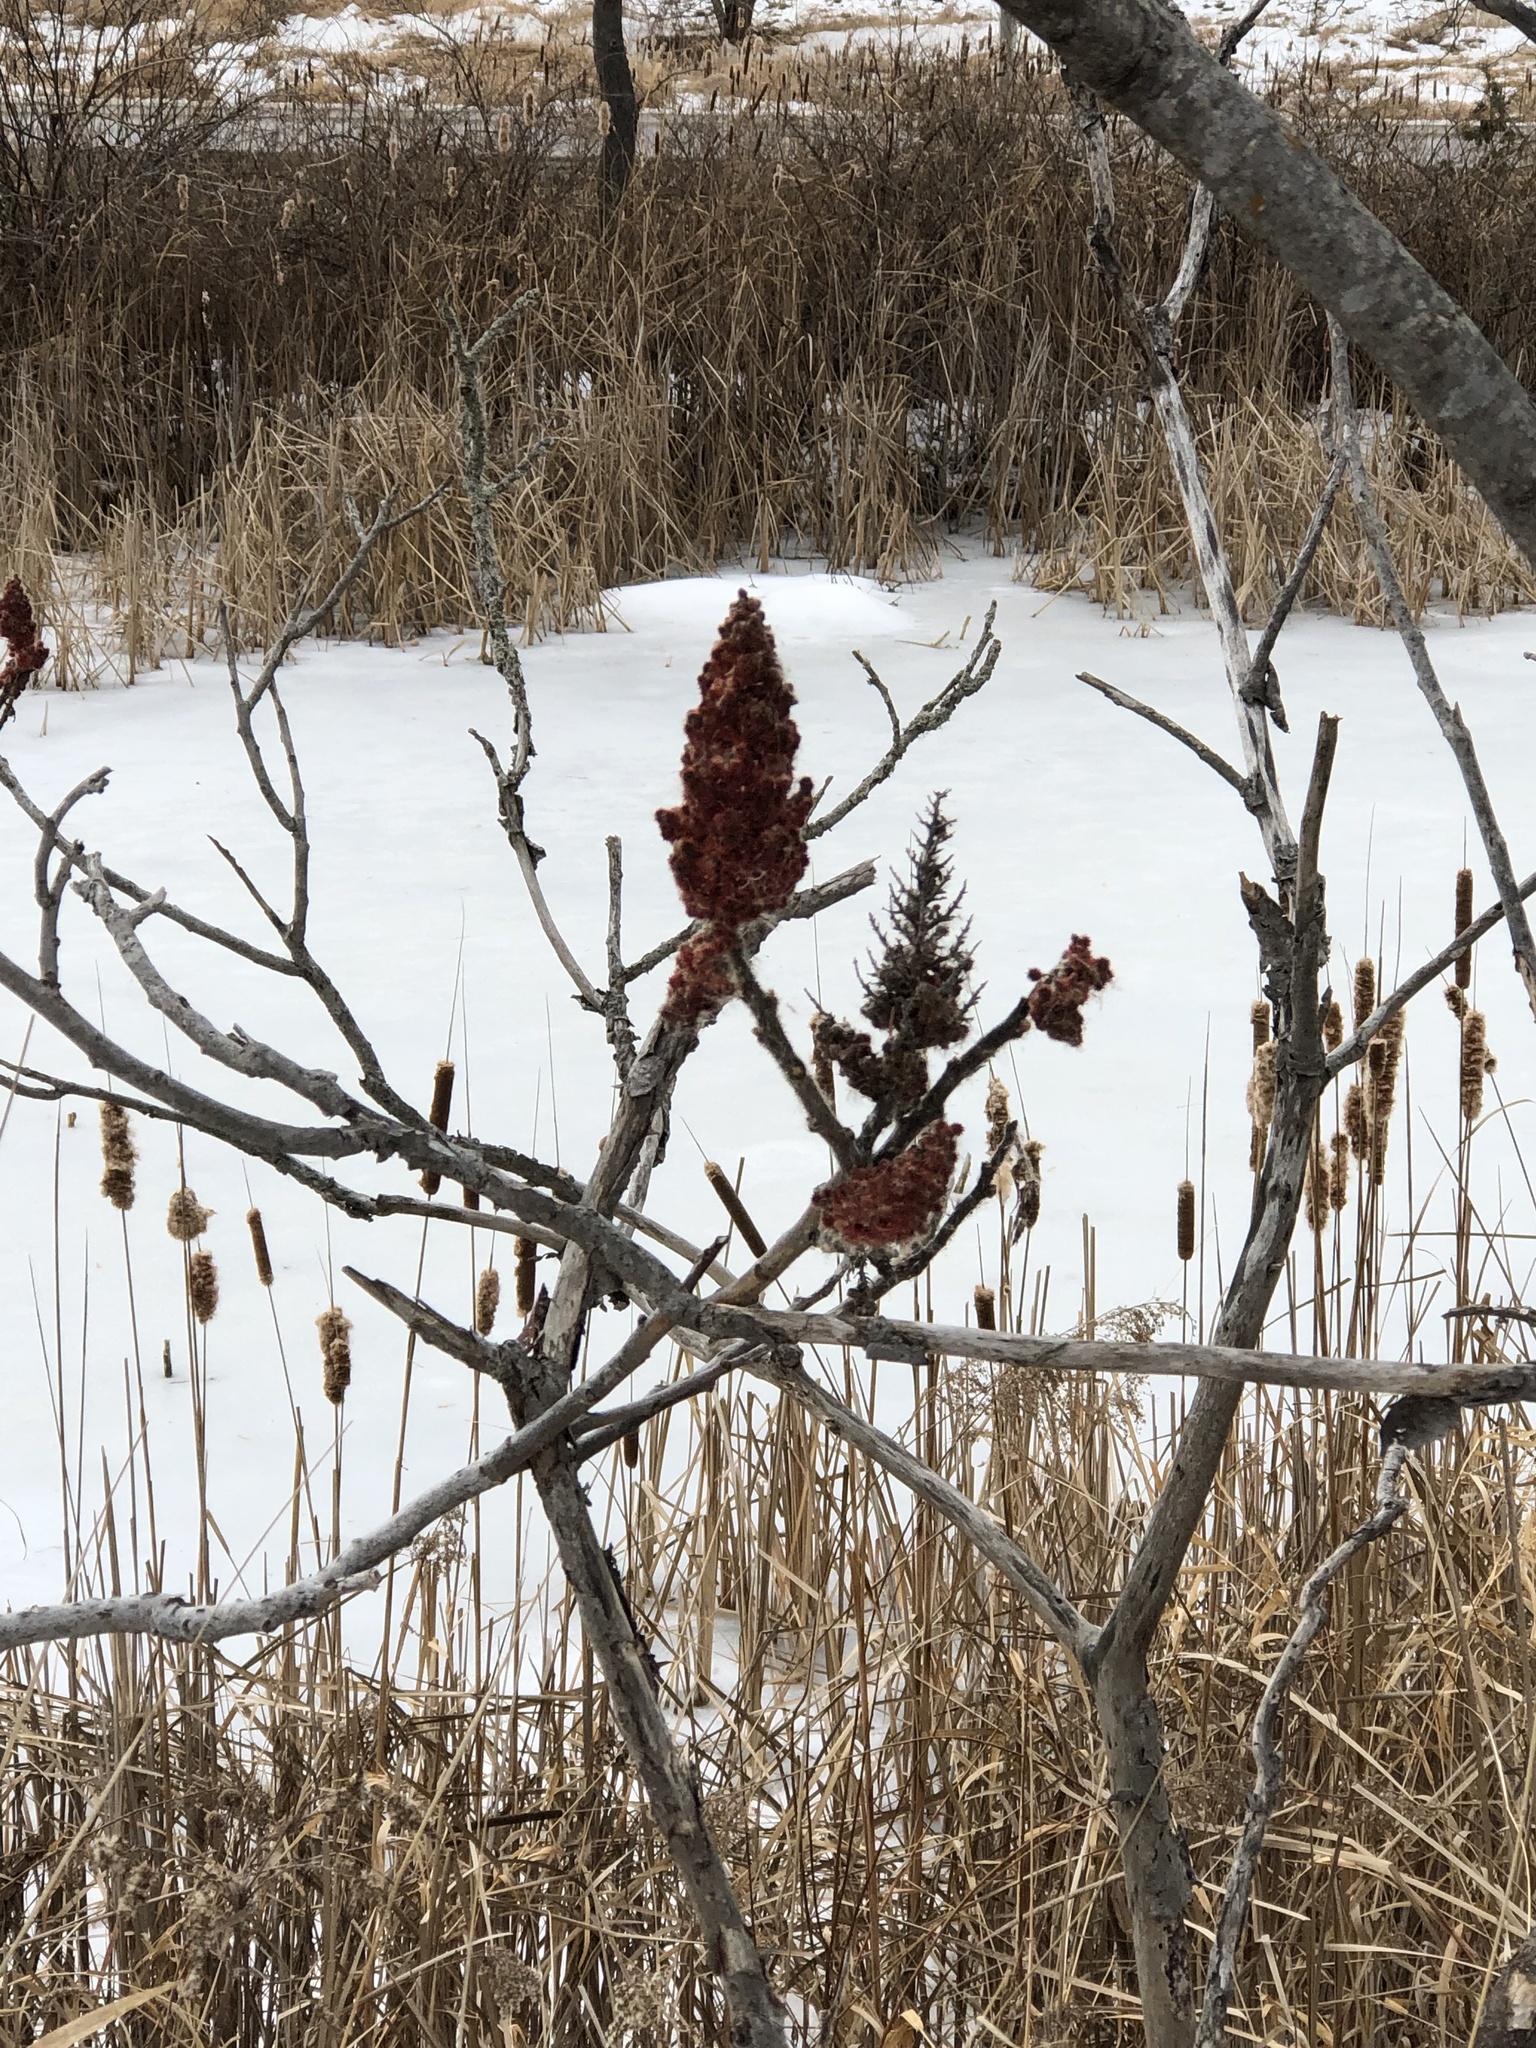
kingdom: Plantae
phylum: Tracheophyta
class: Magnoliopsida
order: Sapindales
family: Anacardiaceae
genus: Rhus
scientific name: Rhus typhina
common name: Staghorn sumac
